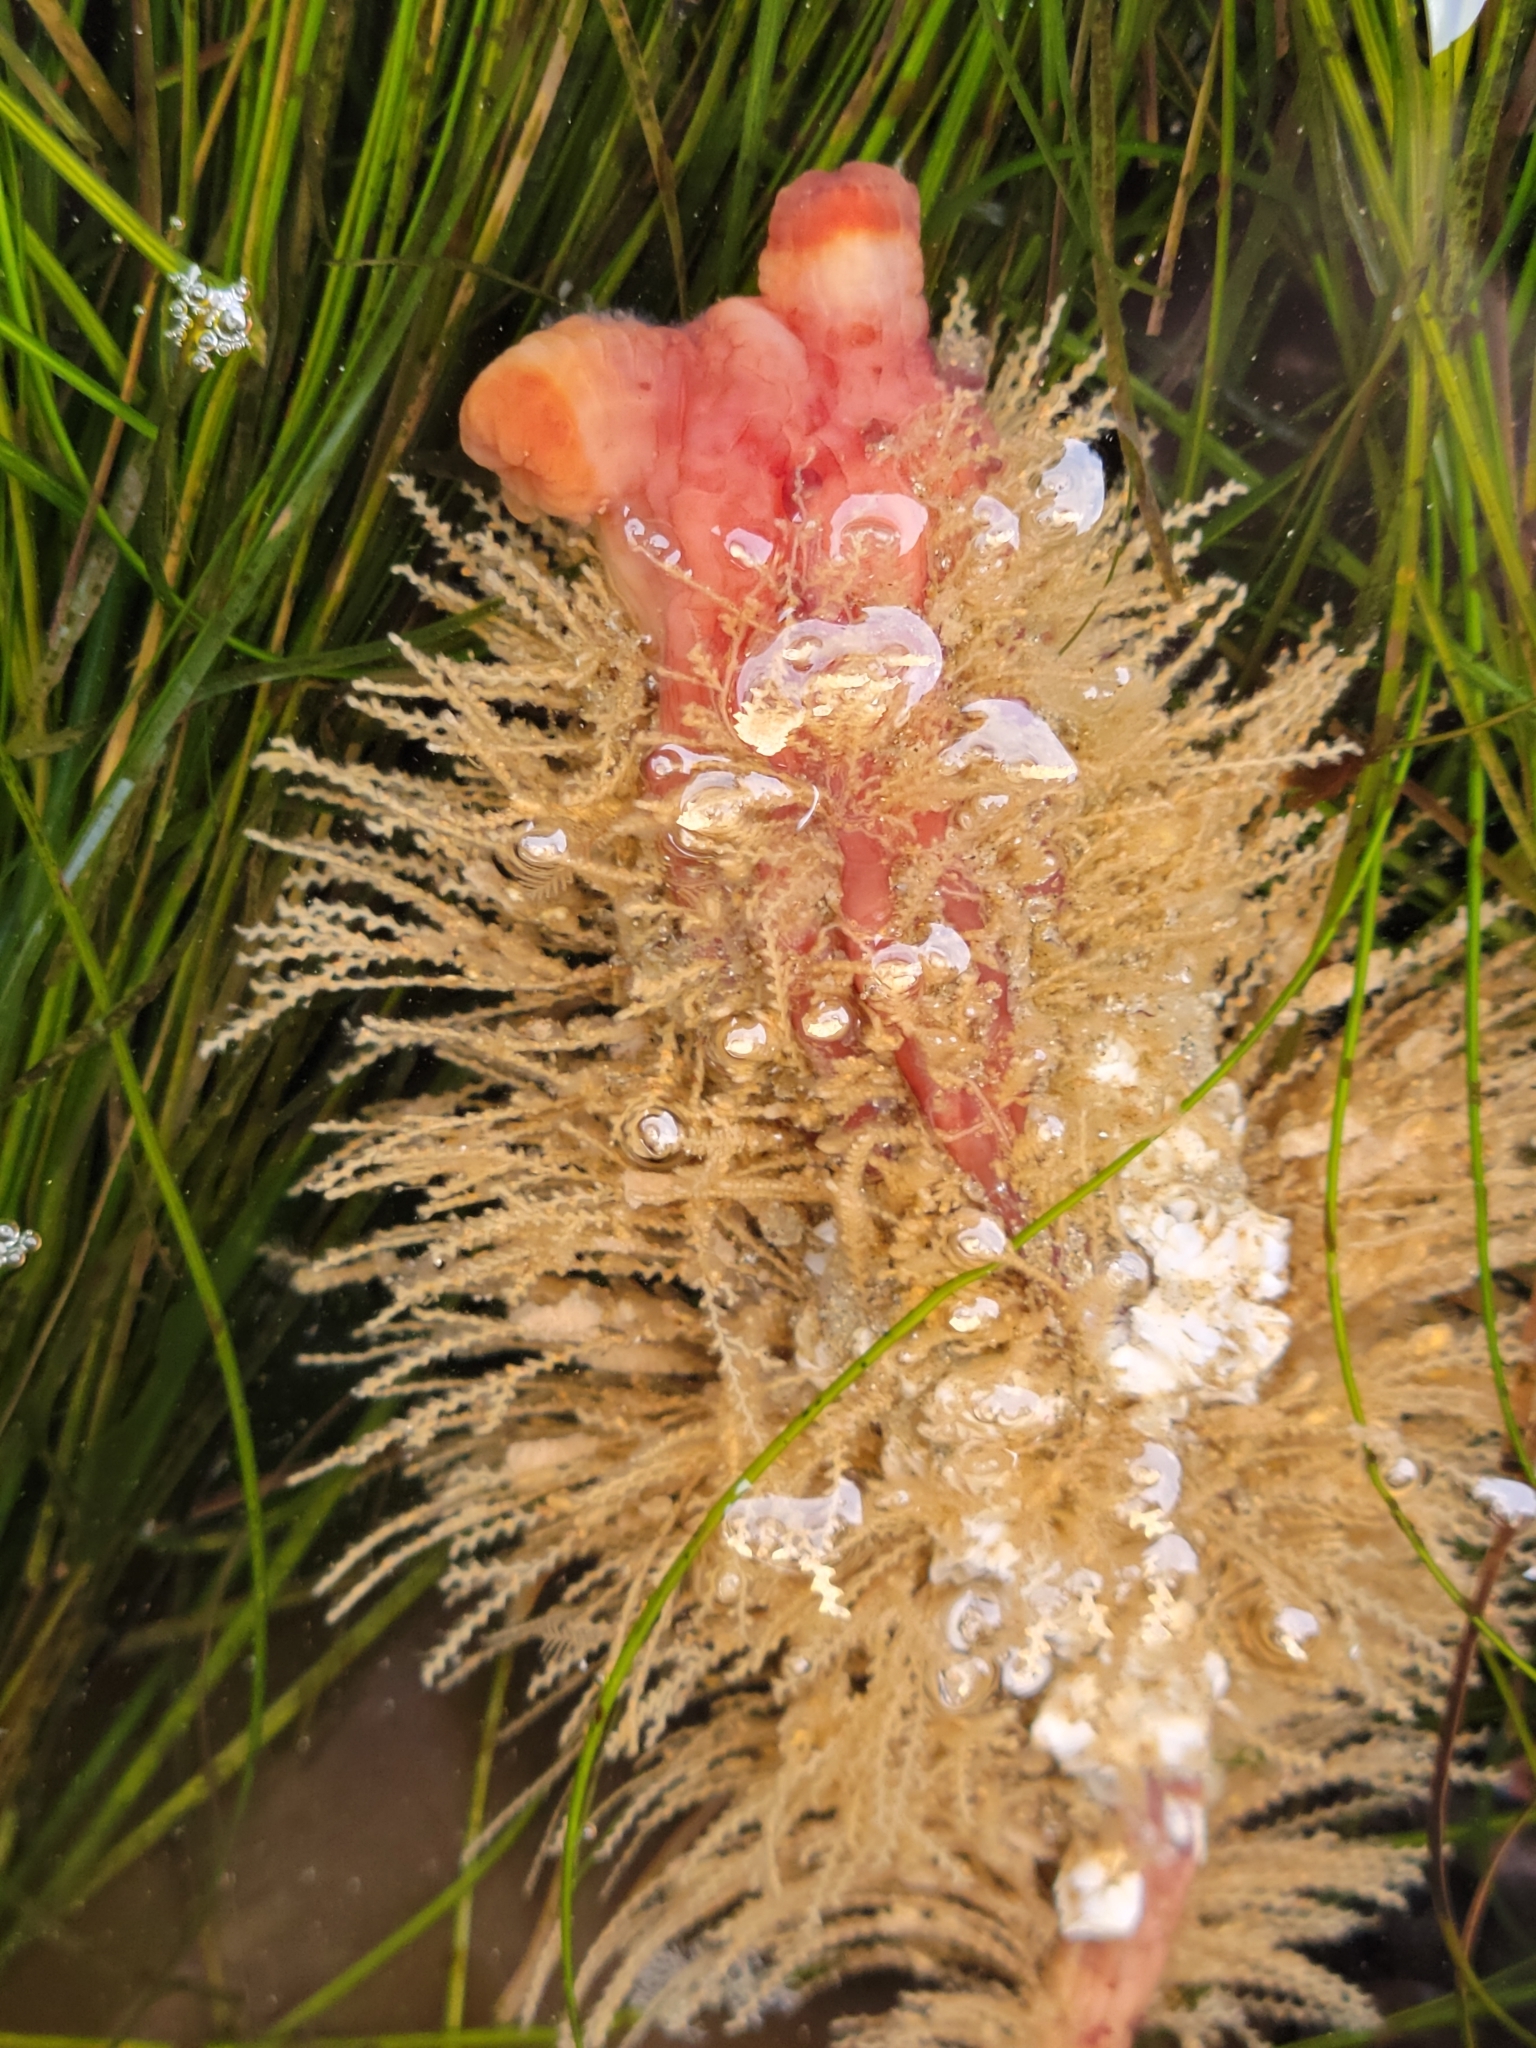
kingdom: Animalia
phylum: Chordata
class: Ascidiacea
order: Stolidobranchia
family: Styelidae
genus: Styela
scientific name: Styela montereyensis
